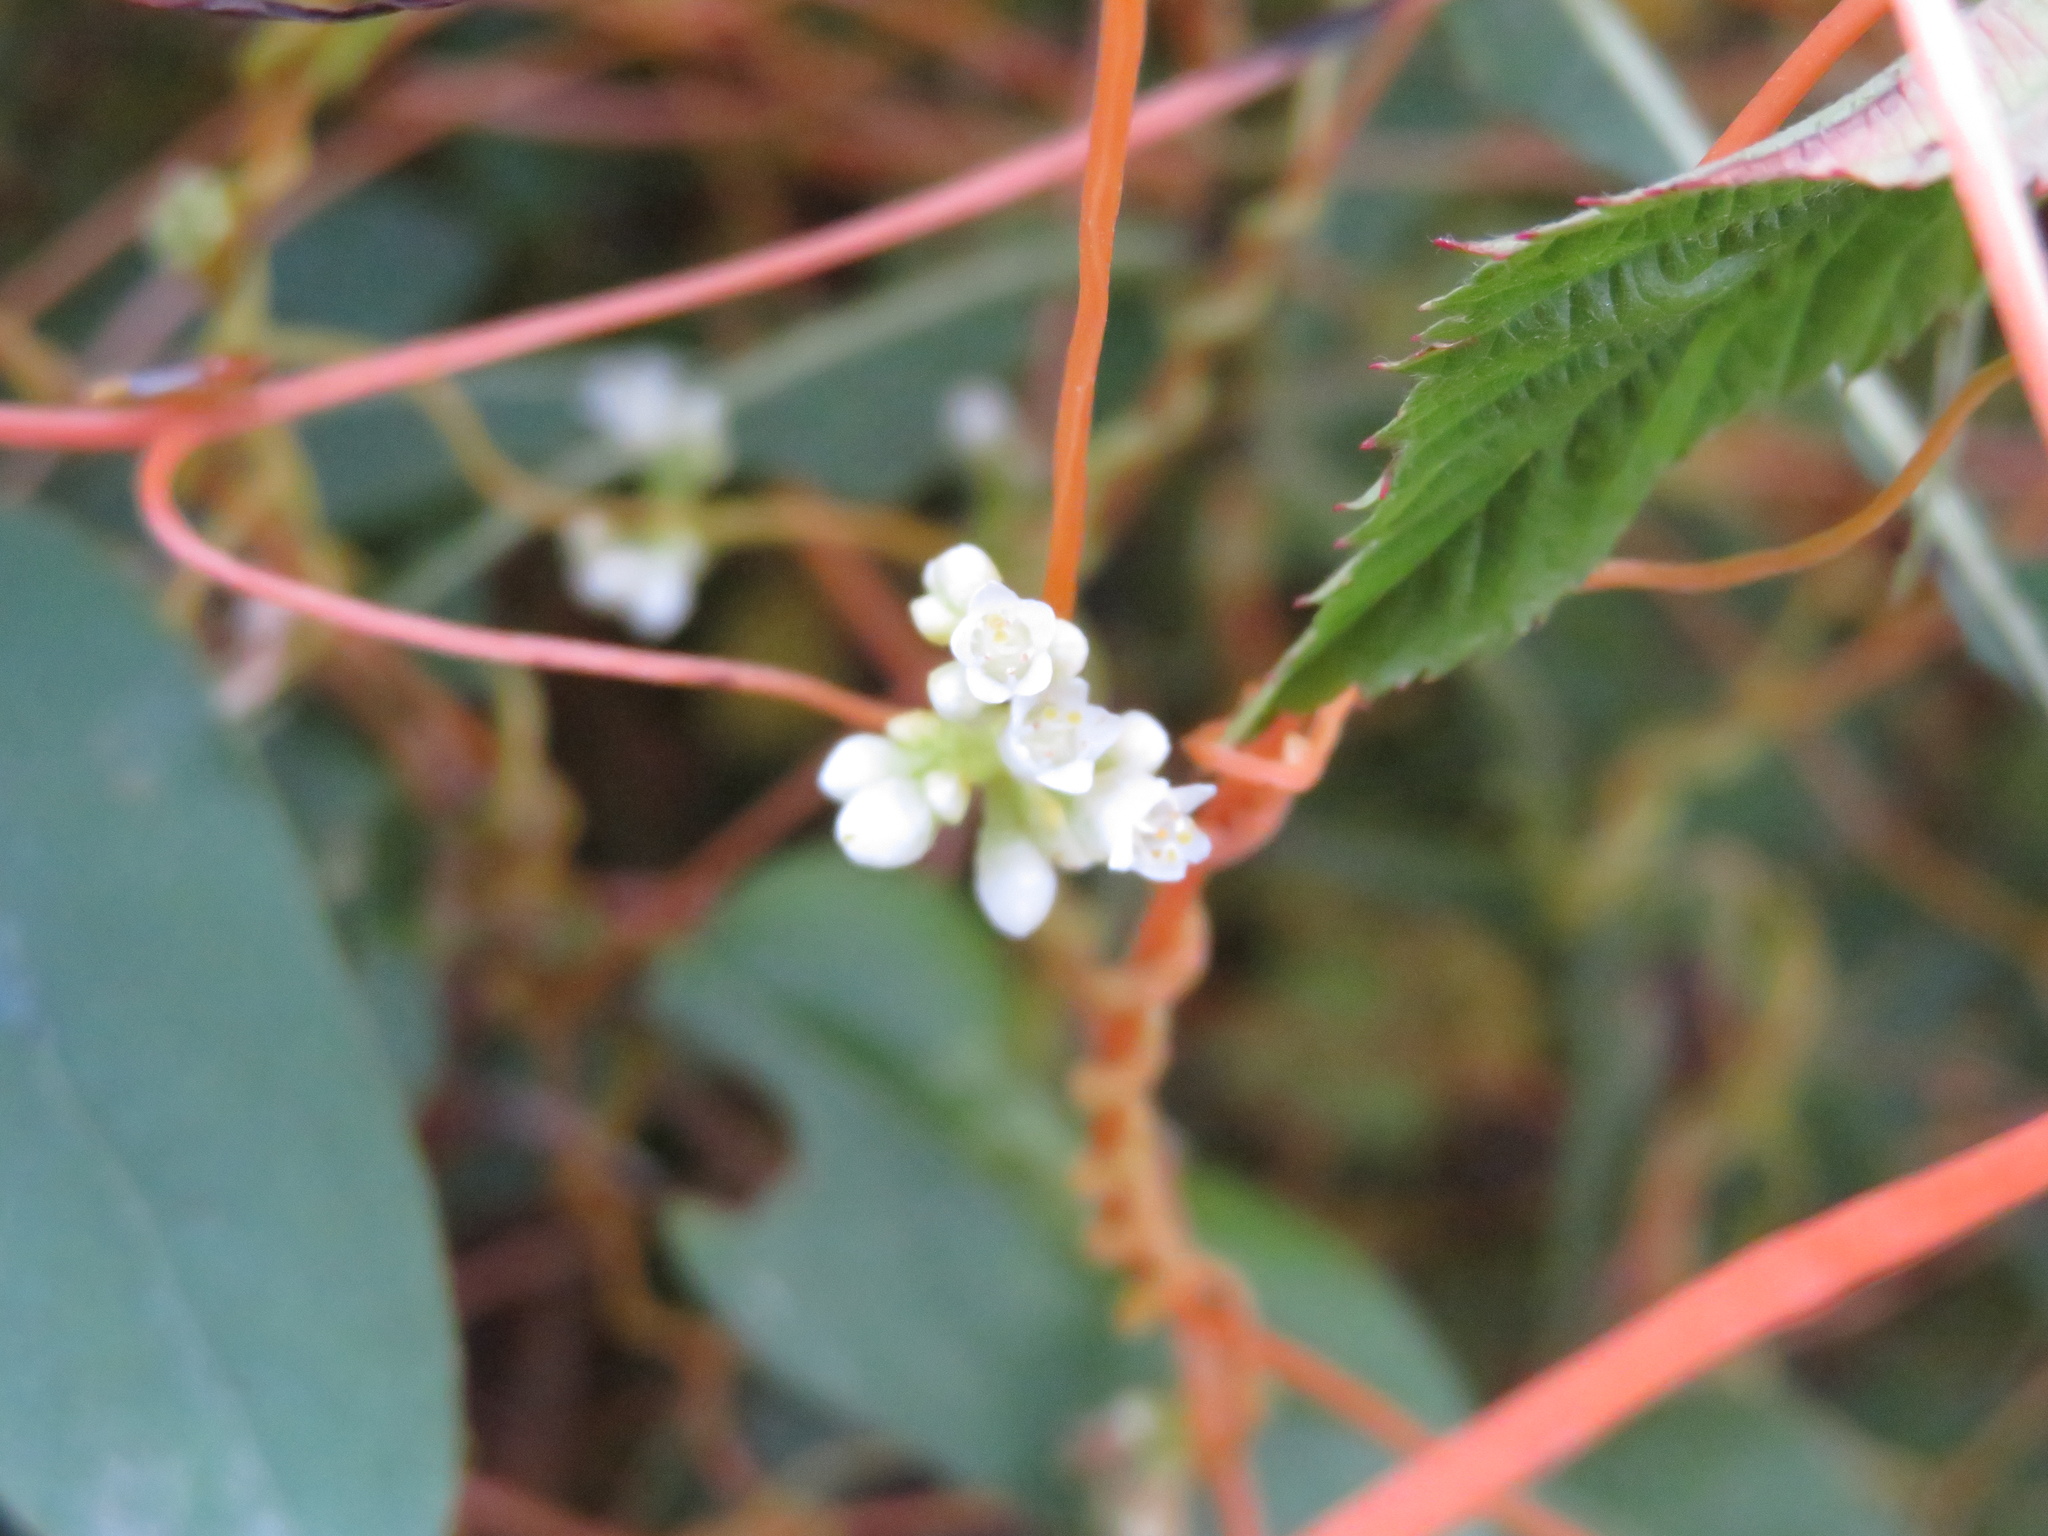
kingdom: Plantae
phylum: Tracheophyta
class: Magnoliopsida
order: Solanales
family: Convolvulaceae
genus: Cuscuta
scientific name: Cuscuta gronovii
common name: Common dodder
